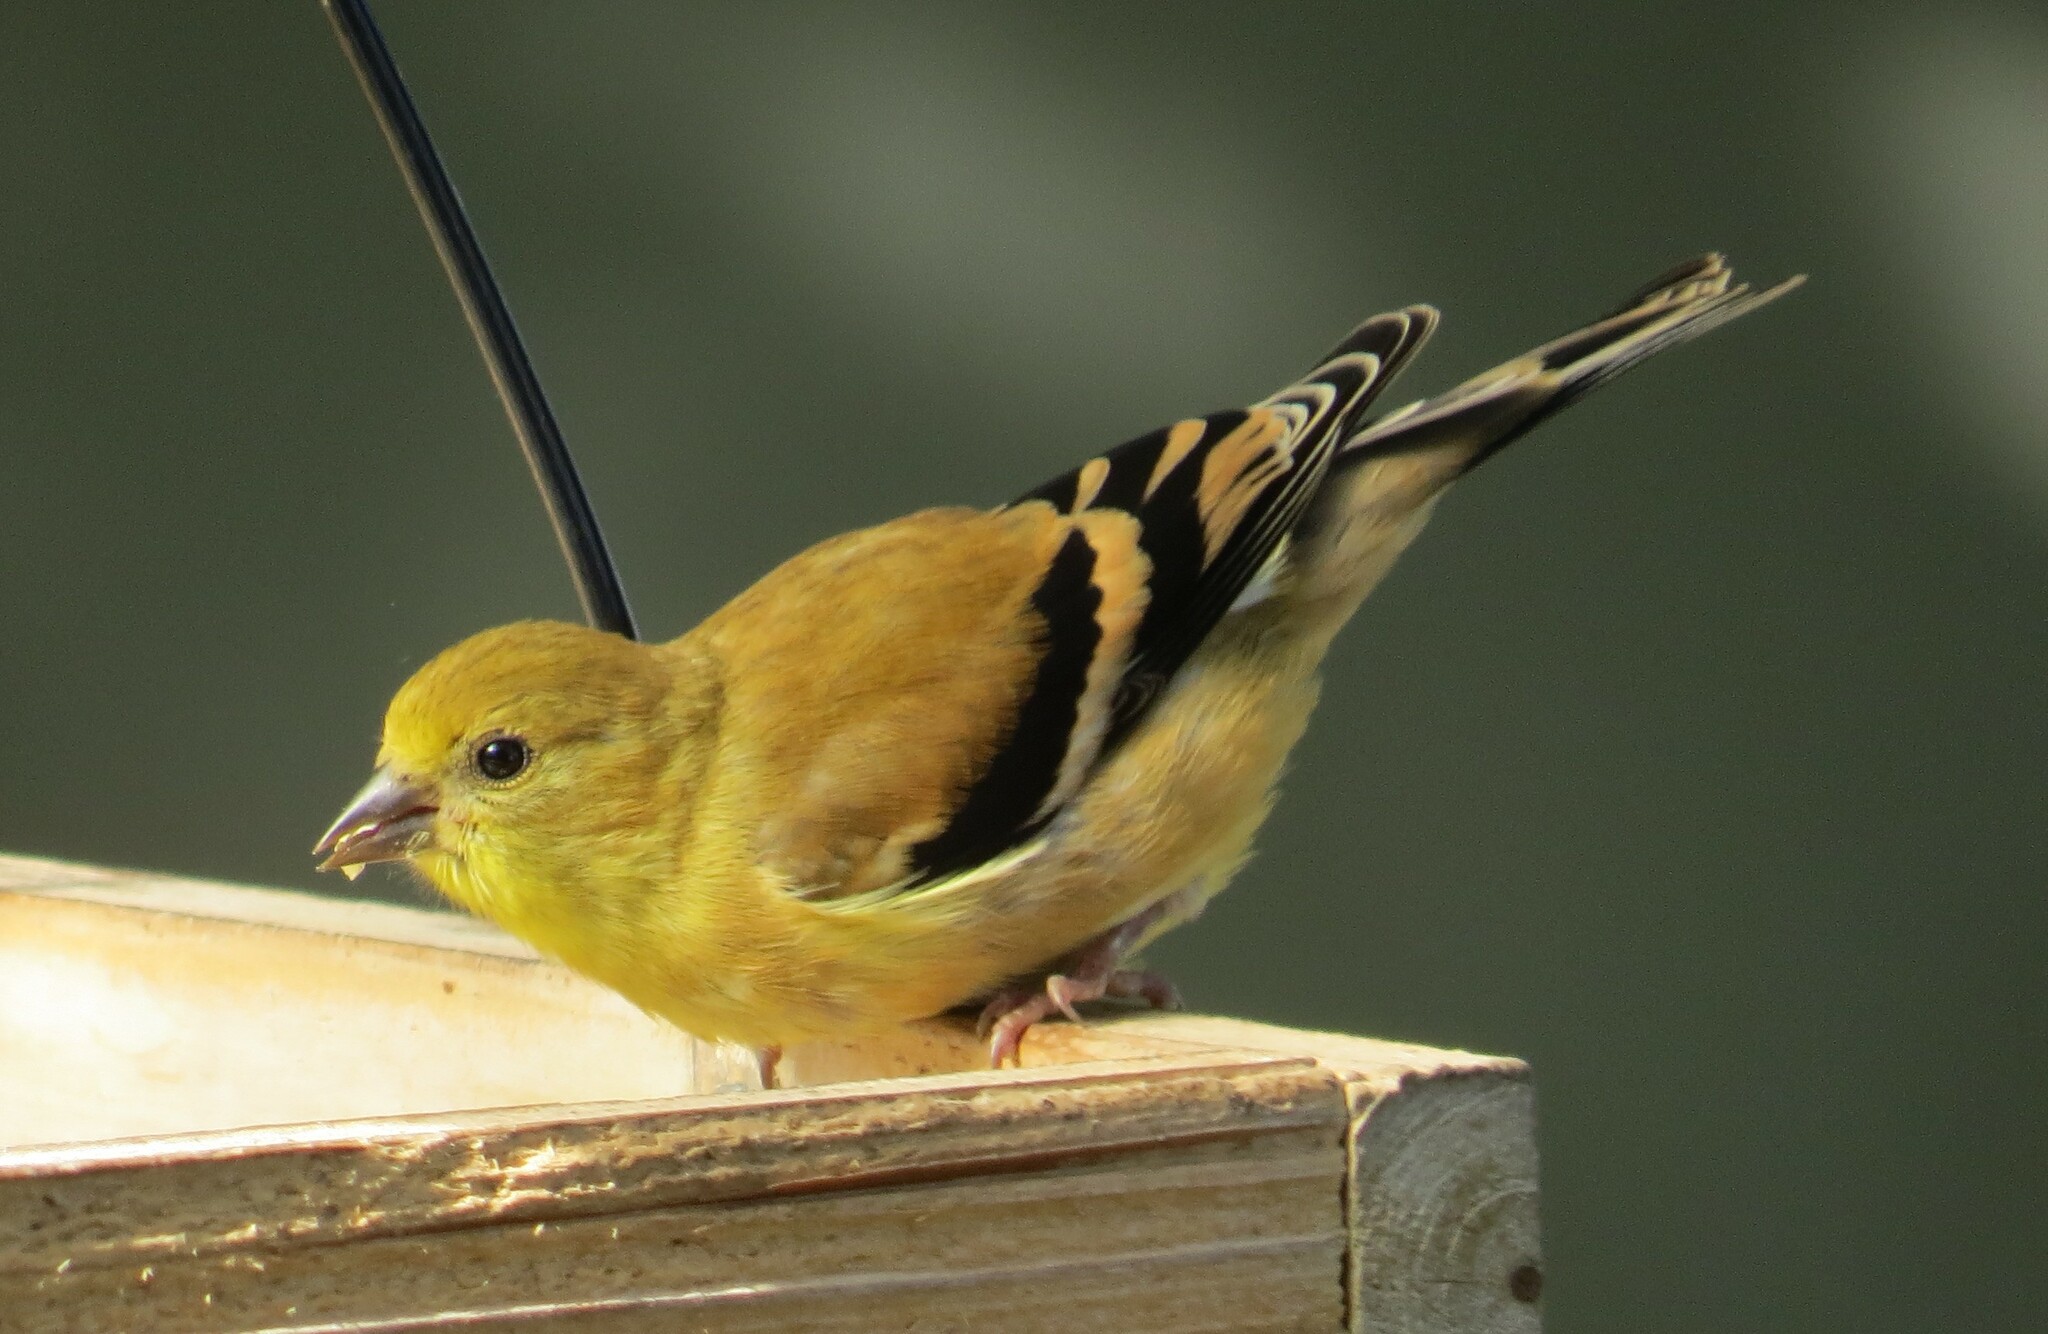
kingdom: Animalia
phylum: Chordata
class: Aves
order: Passeriformes
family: Fringillidae
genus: Spinus
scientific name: Spinus tristis
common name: American goldfinch
